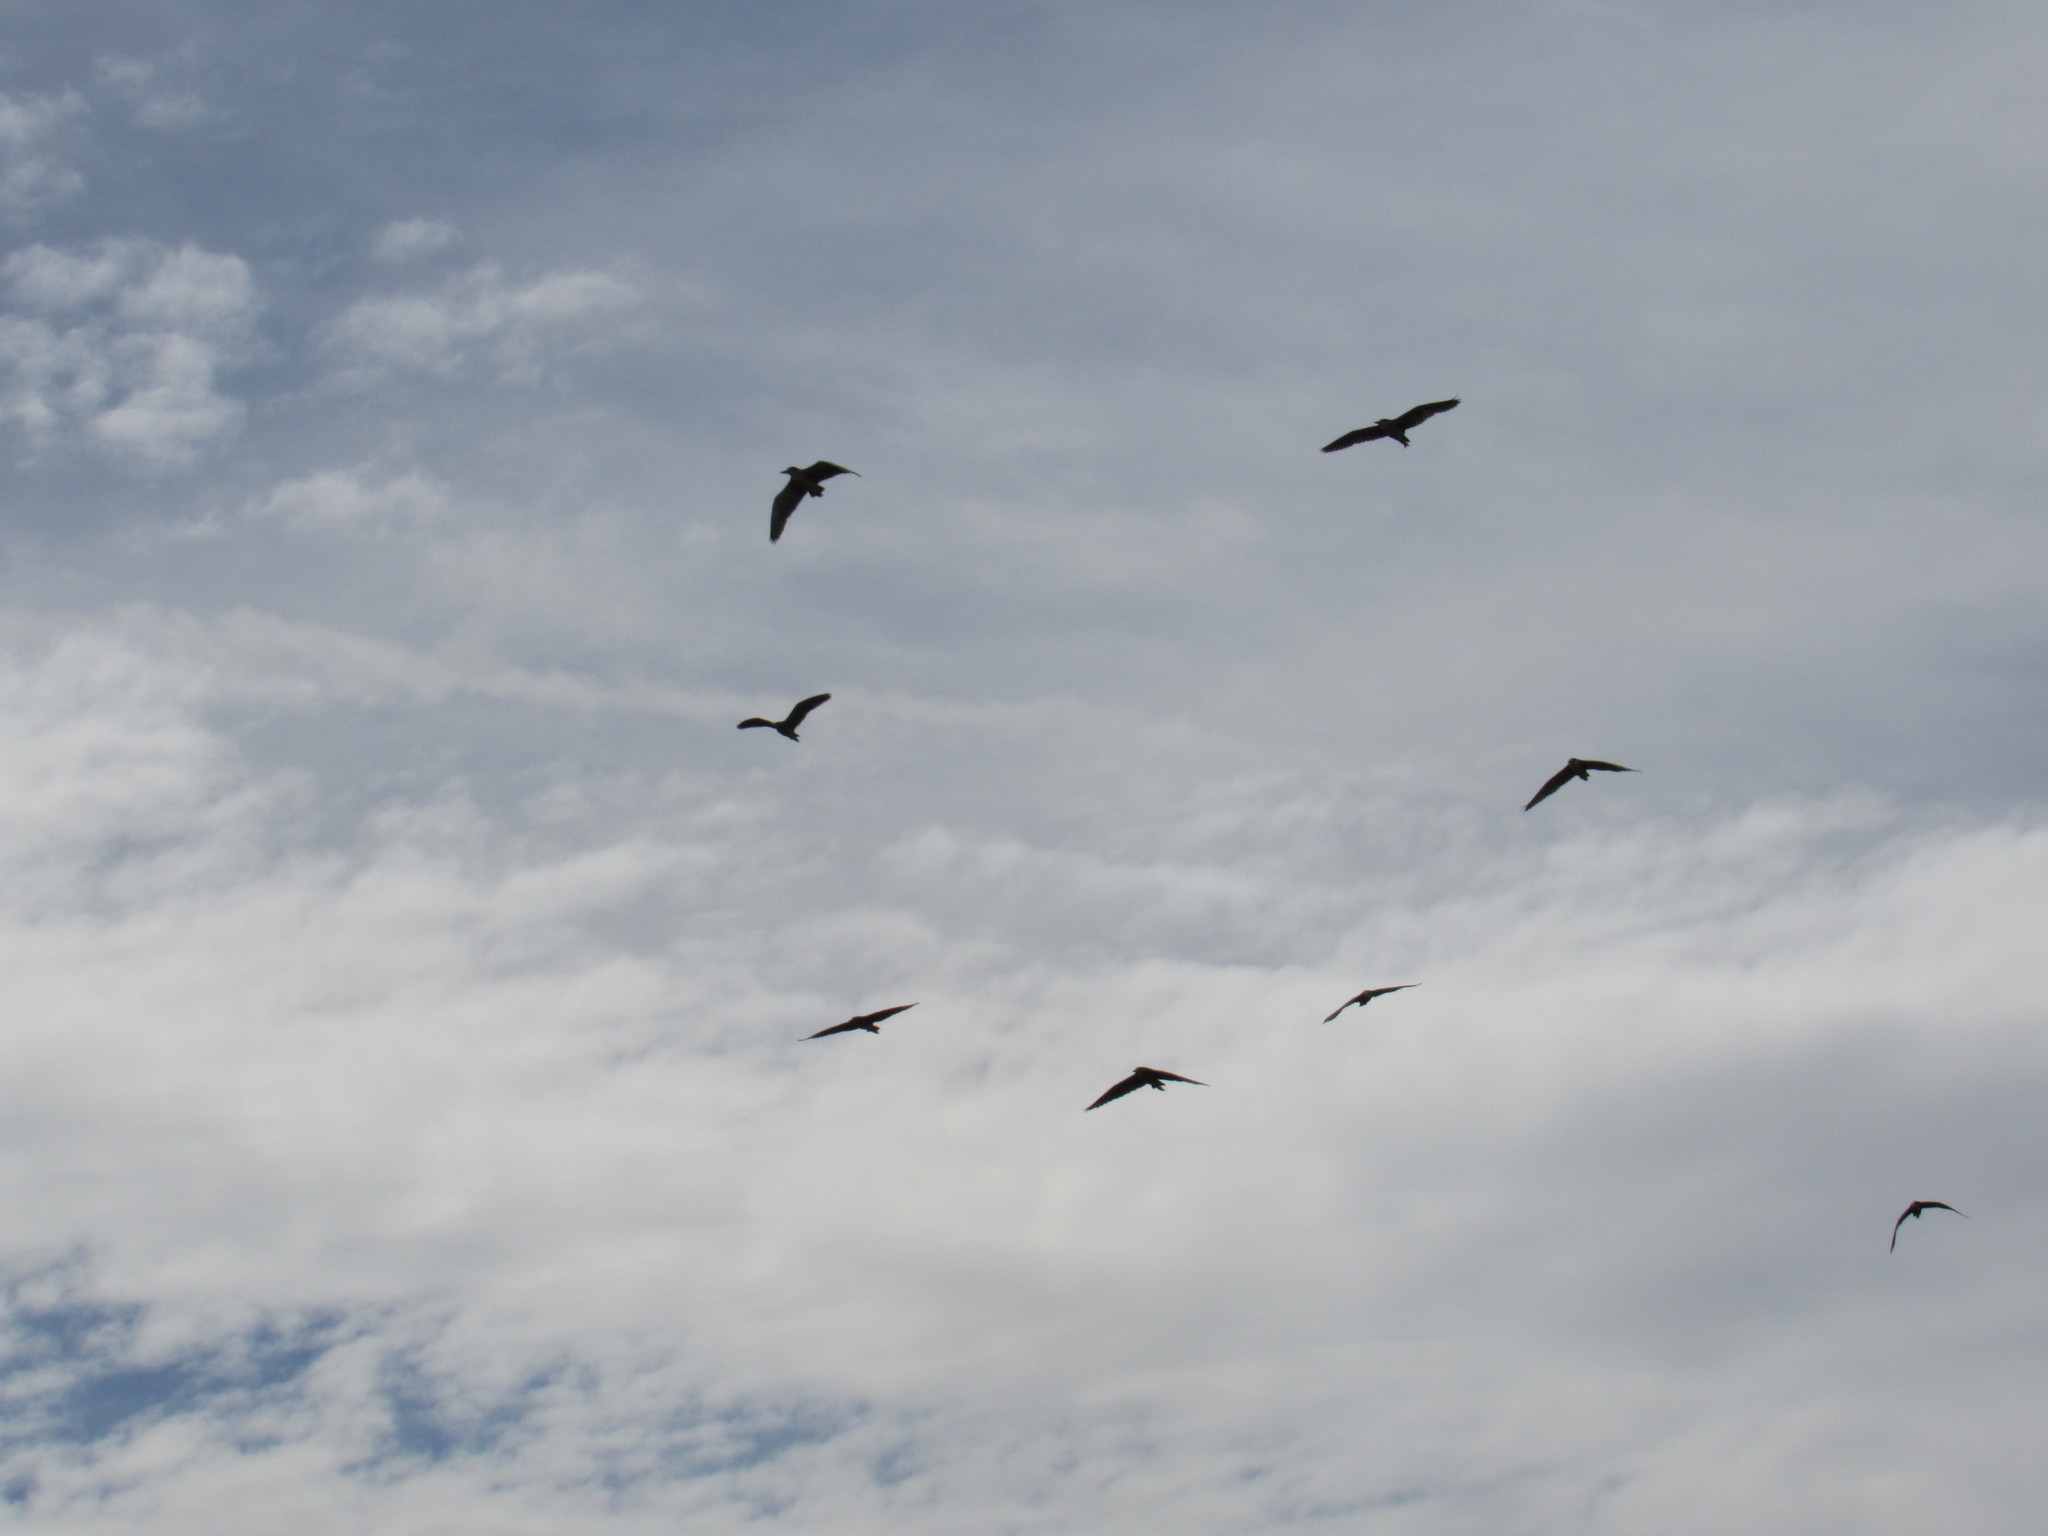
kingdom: Animalia
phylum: Chordata
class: Aves
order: Pelecaniformes
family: Ardeidae
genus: Nycticorax
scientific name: Nycticorax nycticorax
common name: Black-crowned night heron
